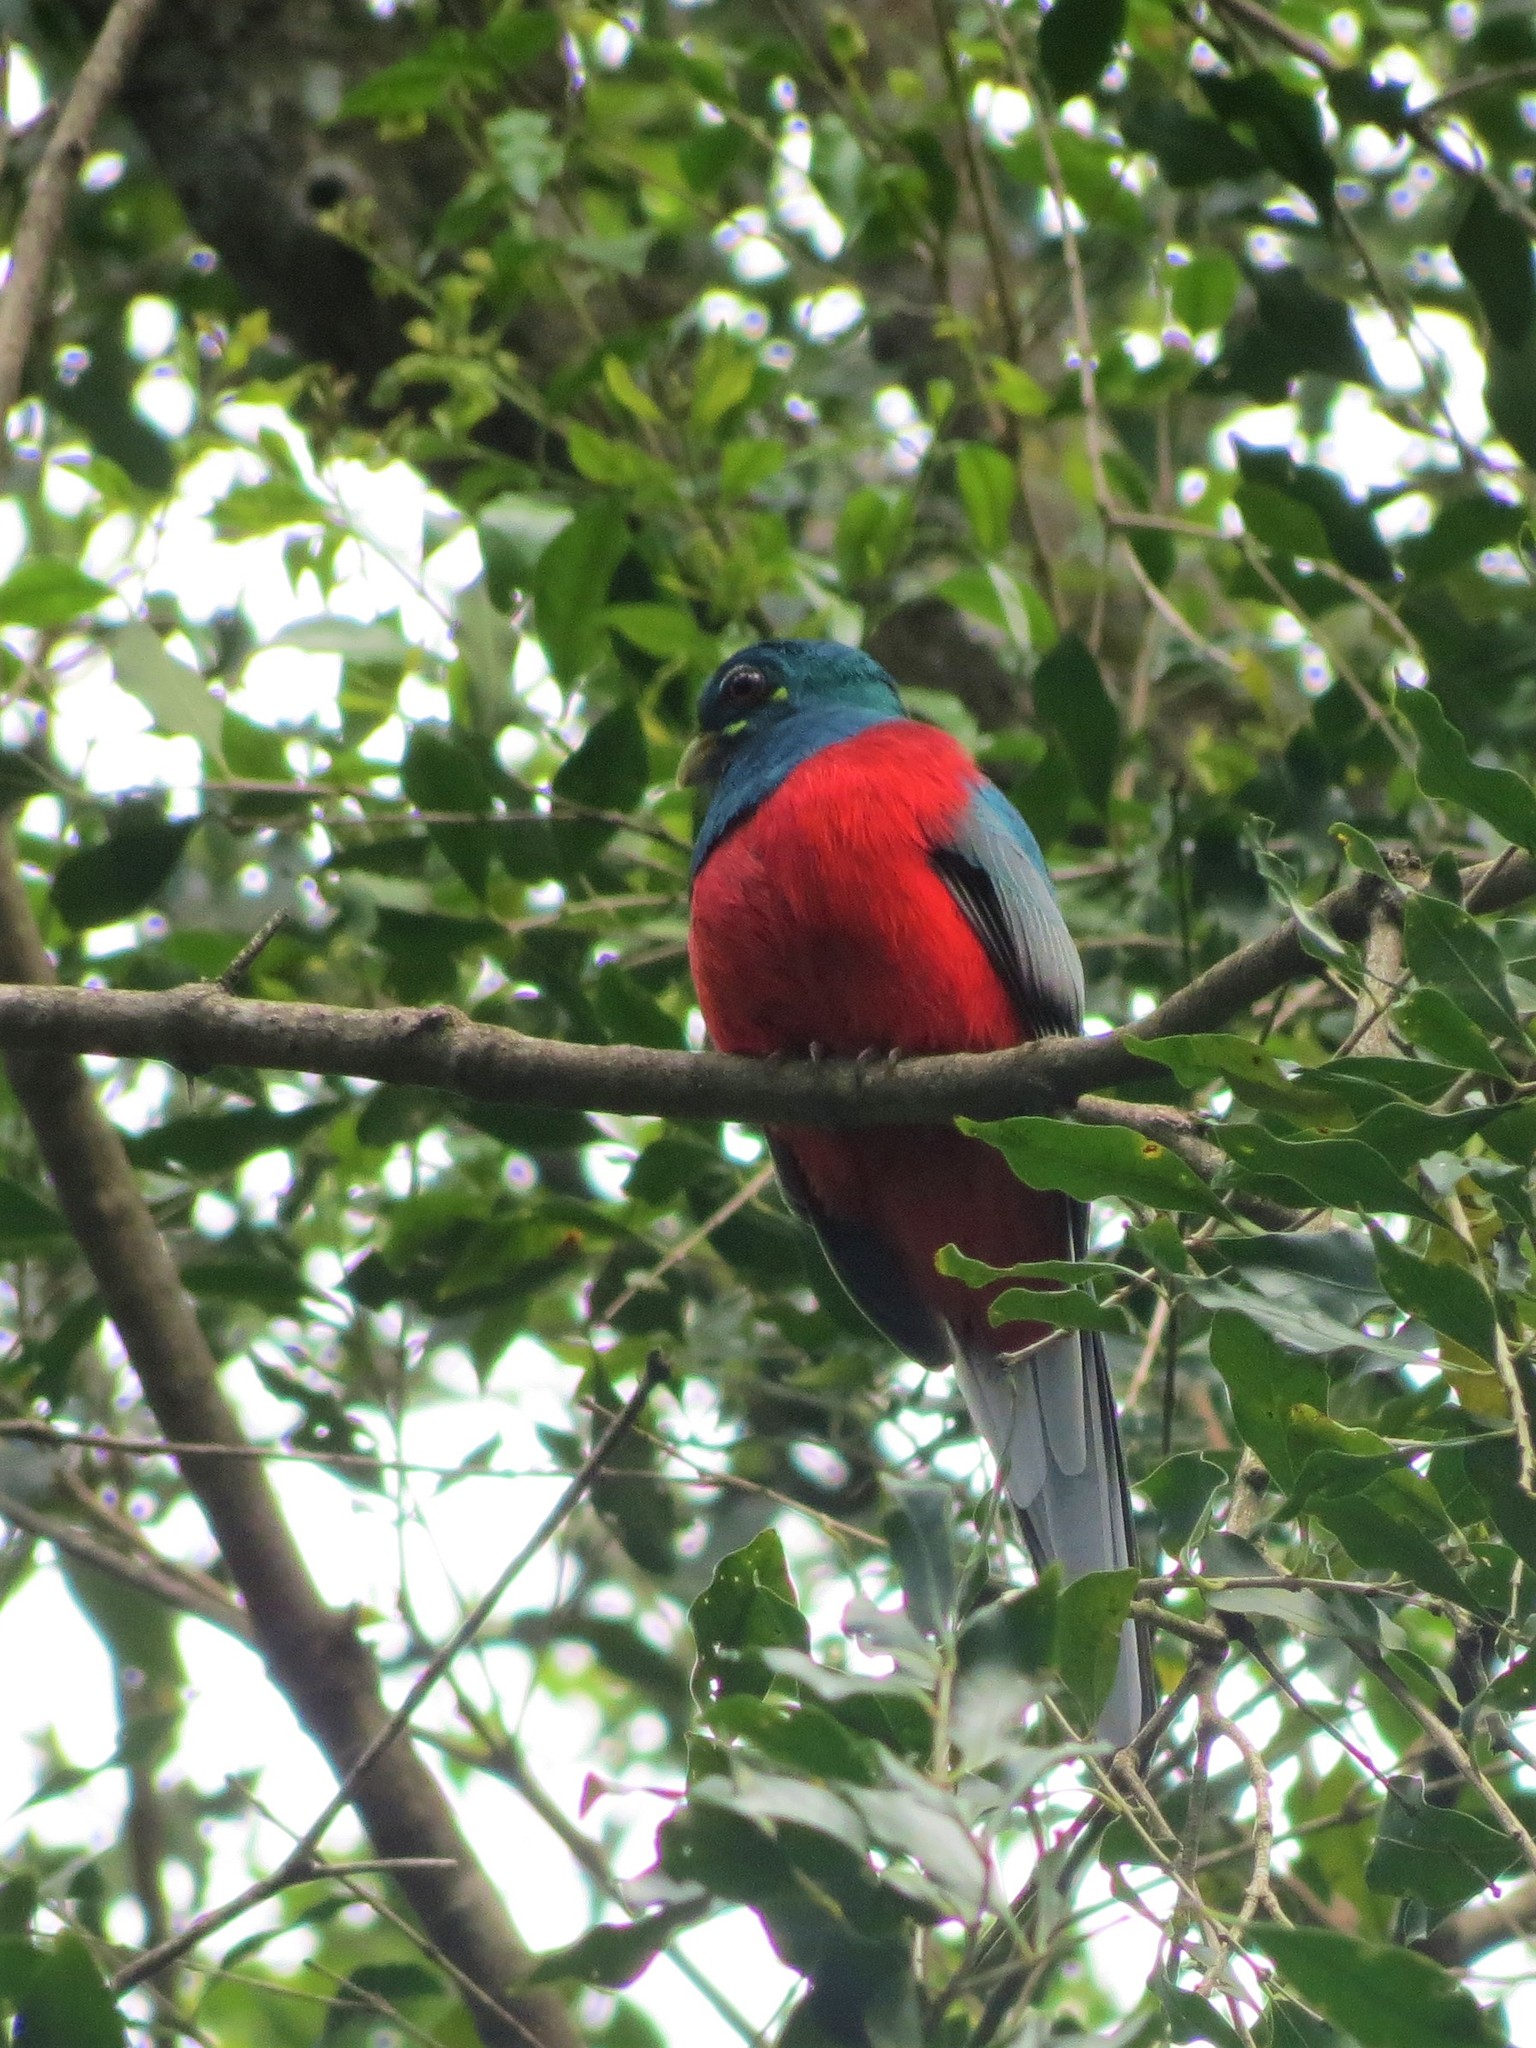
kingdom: Animalia
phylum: Chordata
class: Aves
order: Trogoniformes
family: Trogonidae
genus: Apaloderma
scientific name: Apaloderma narina
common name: Narina trogon
